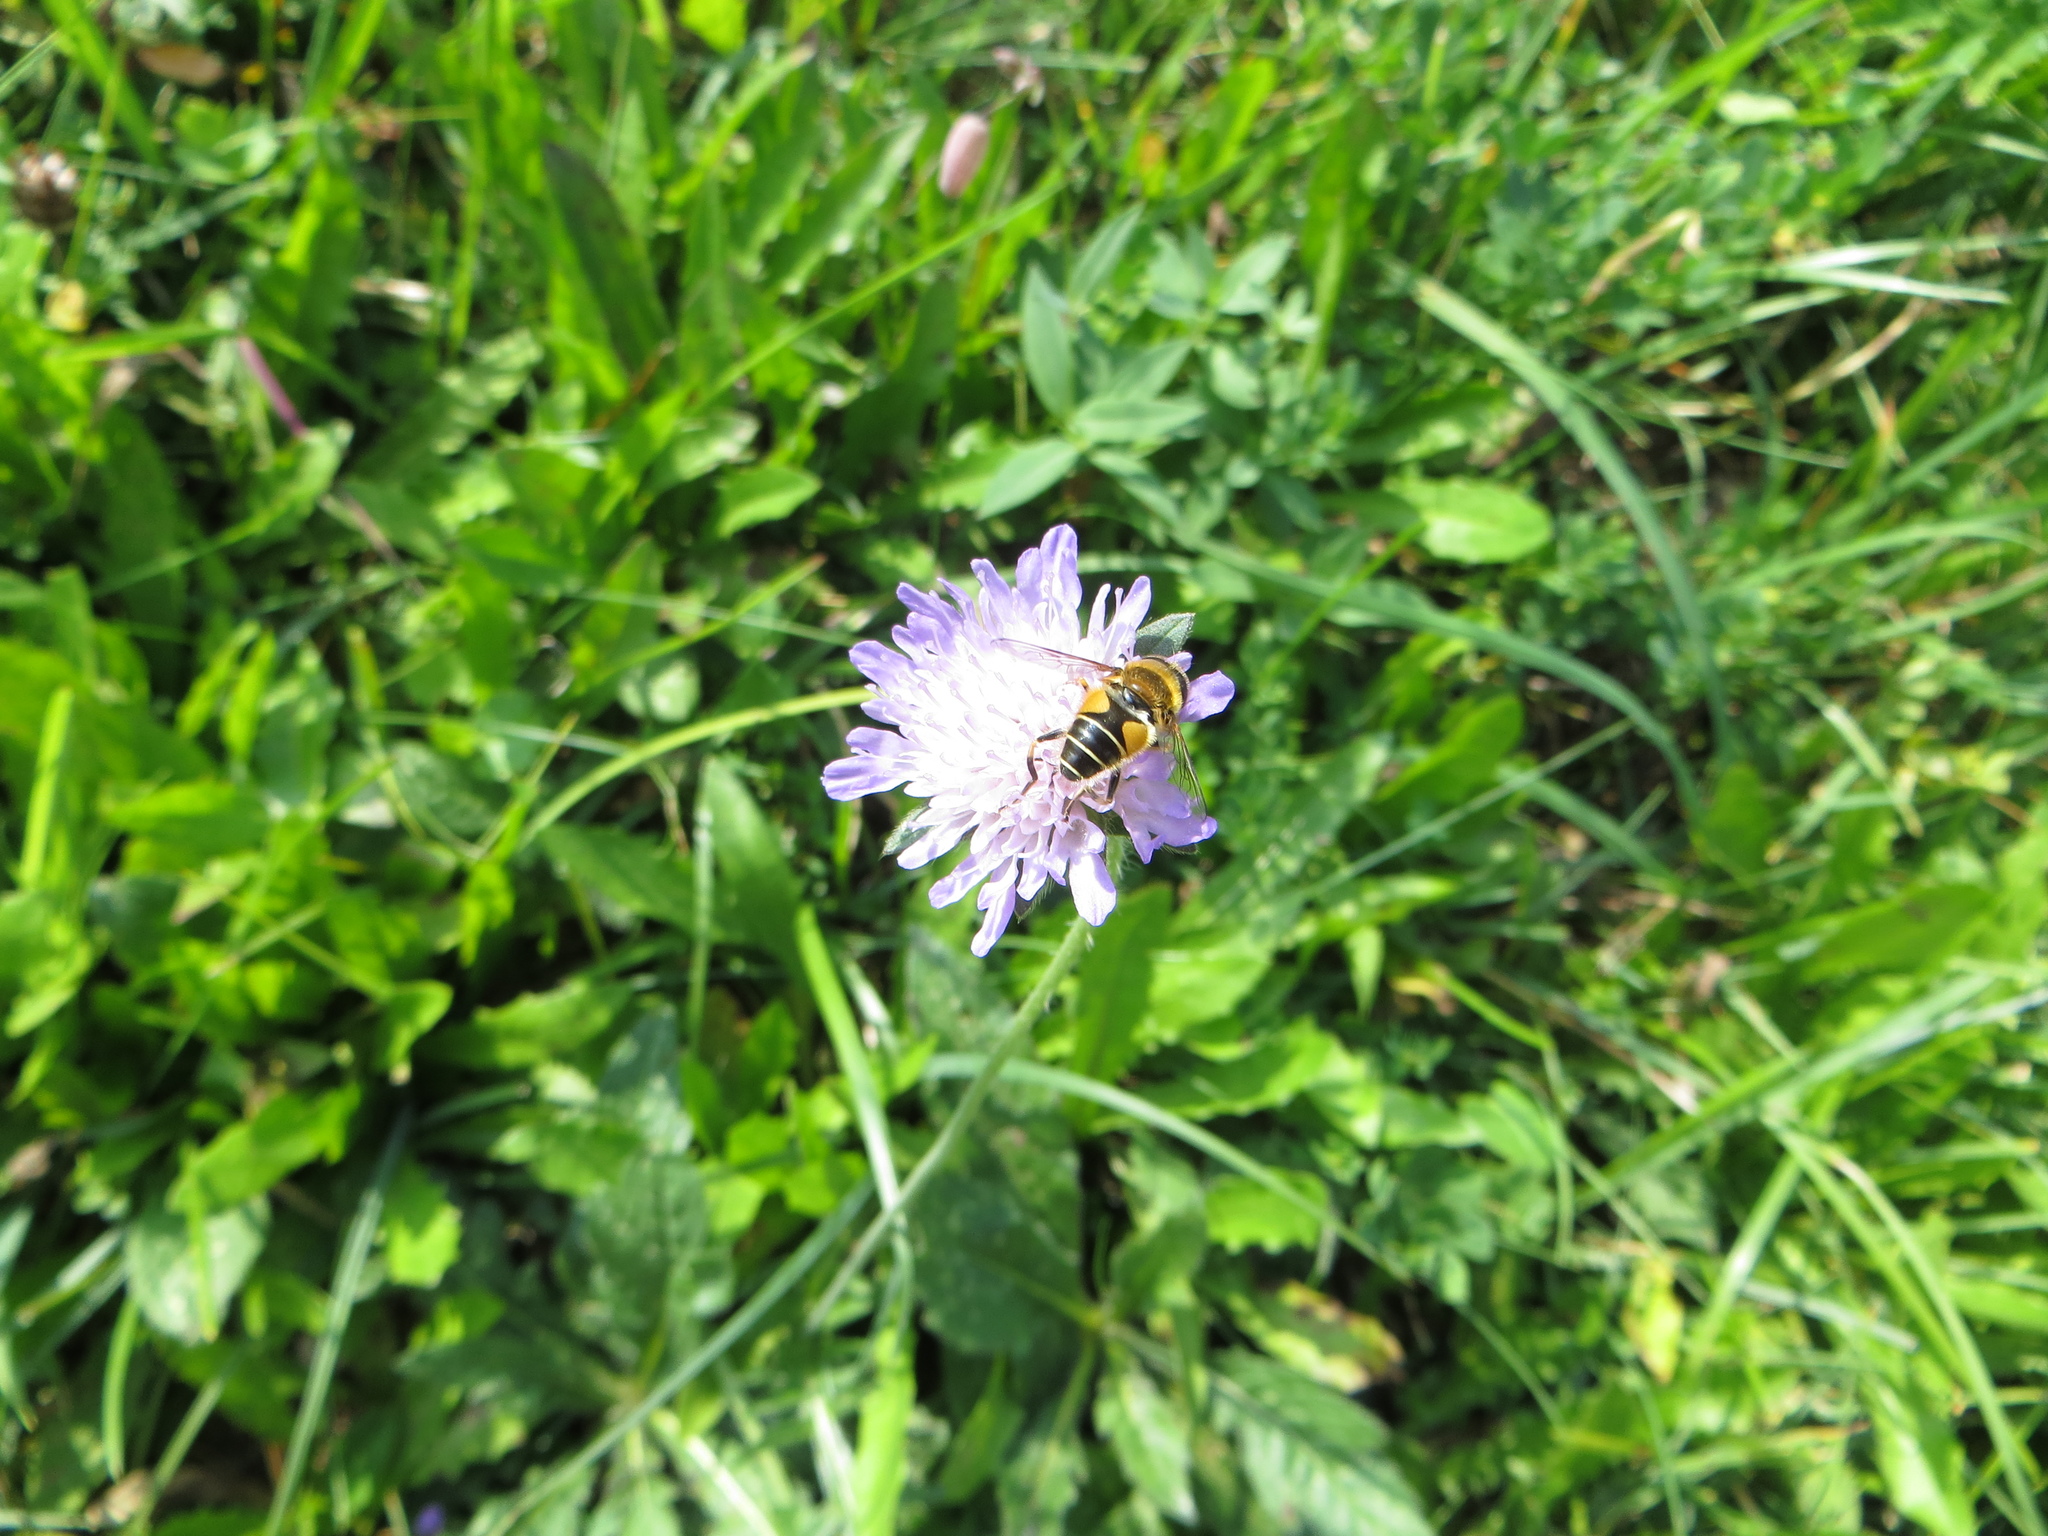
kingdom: Animalia
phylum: Arthropoda
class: Insecta
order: Diptera
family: Syrphidae
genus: Eristalis
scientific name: Eristalis nemorum
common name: Orange-spined drone fly
